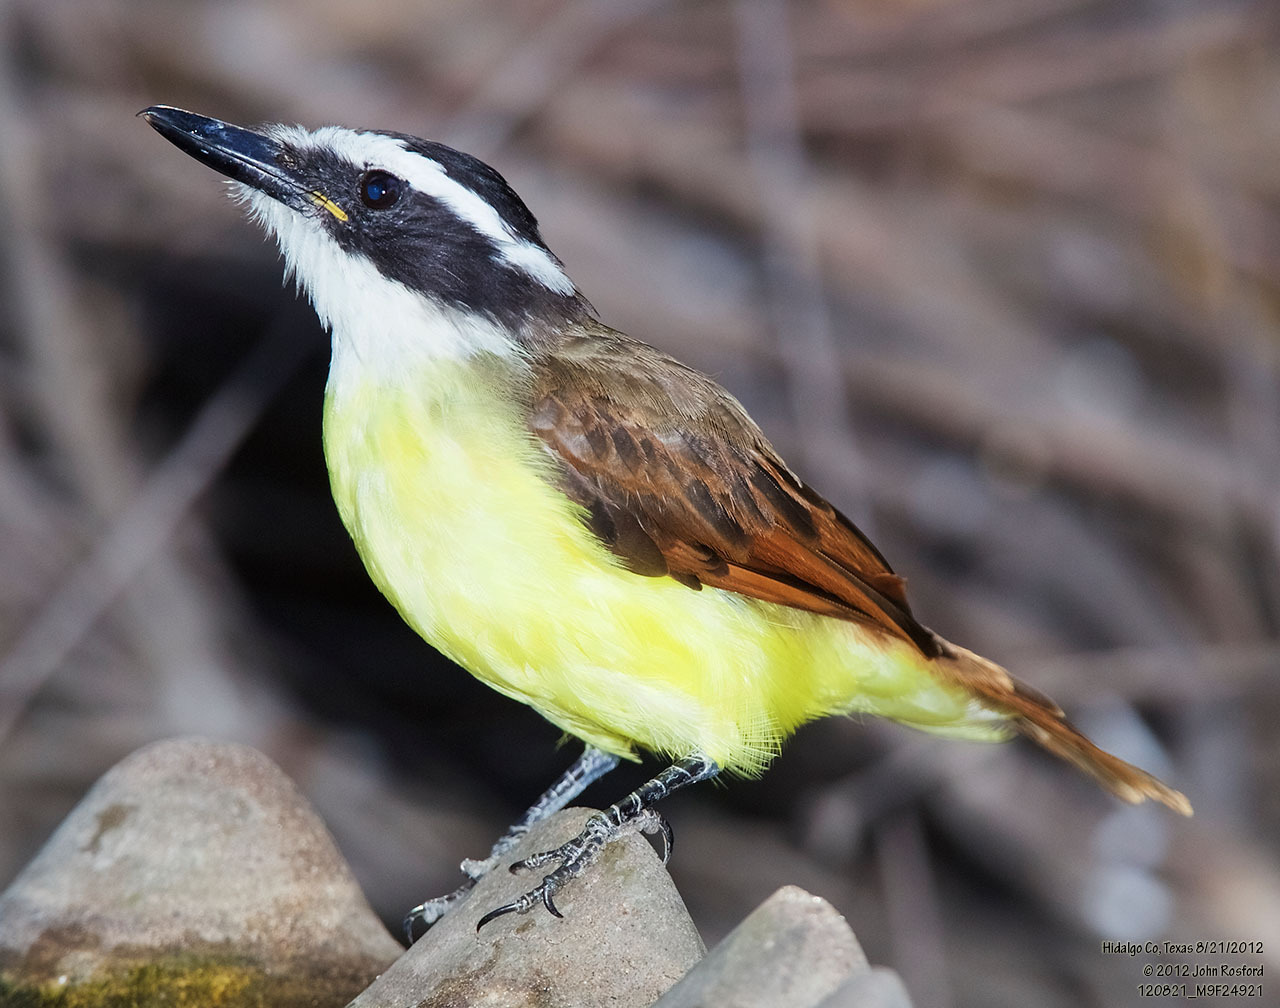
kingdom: Animalia
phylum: Chordata
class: Aves
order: Passeriformes
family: Tyrannidae
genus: Pitangus
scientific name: Pitangus sulphuratus
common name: Great kiskadee
